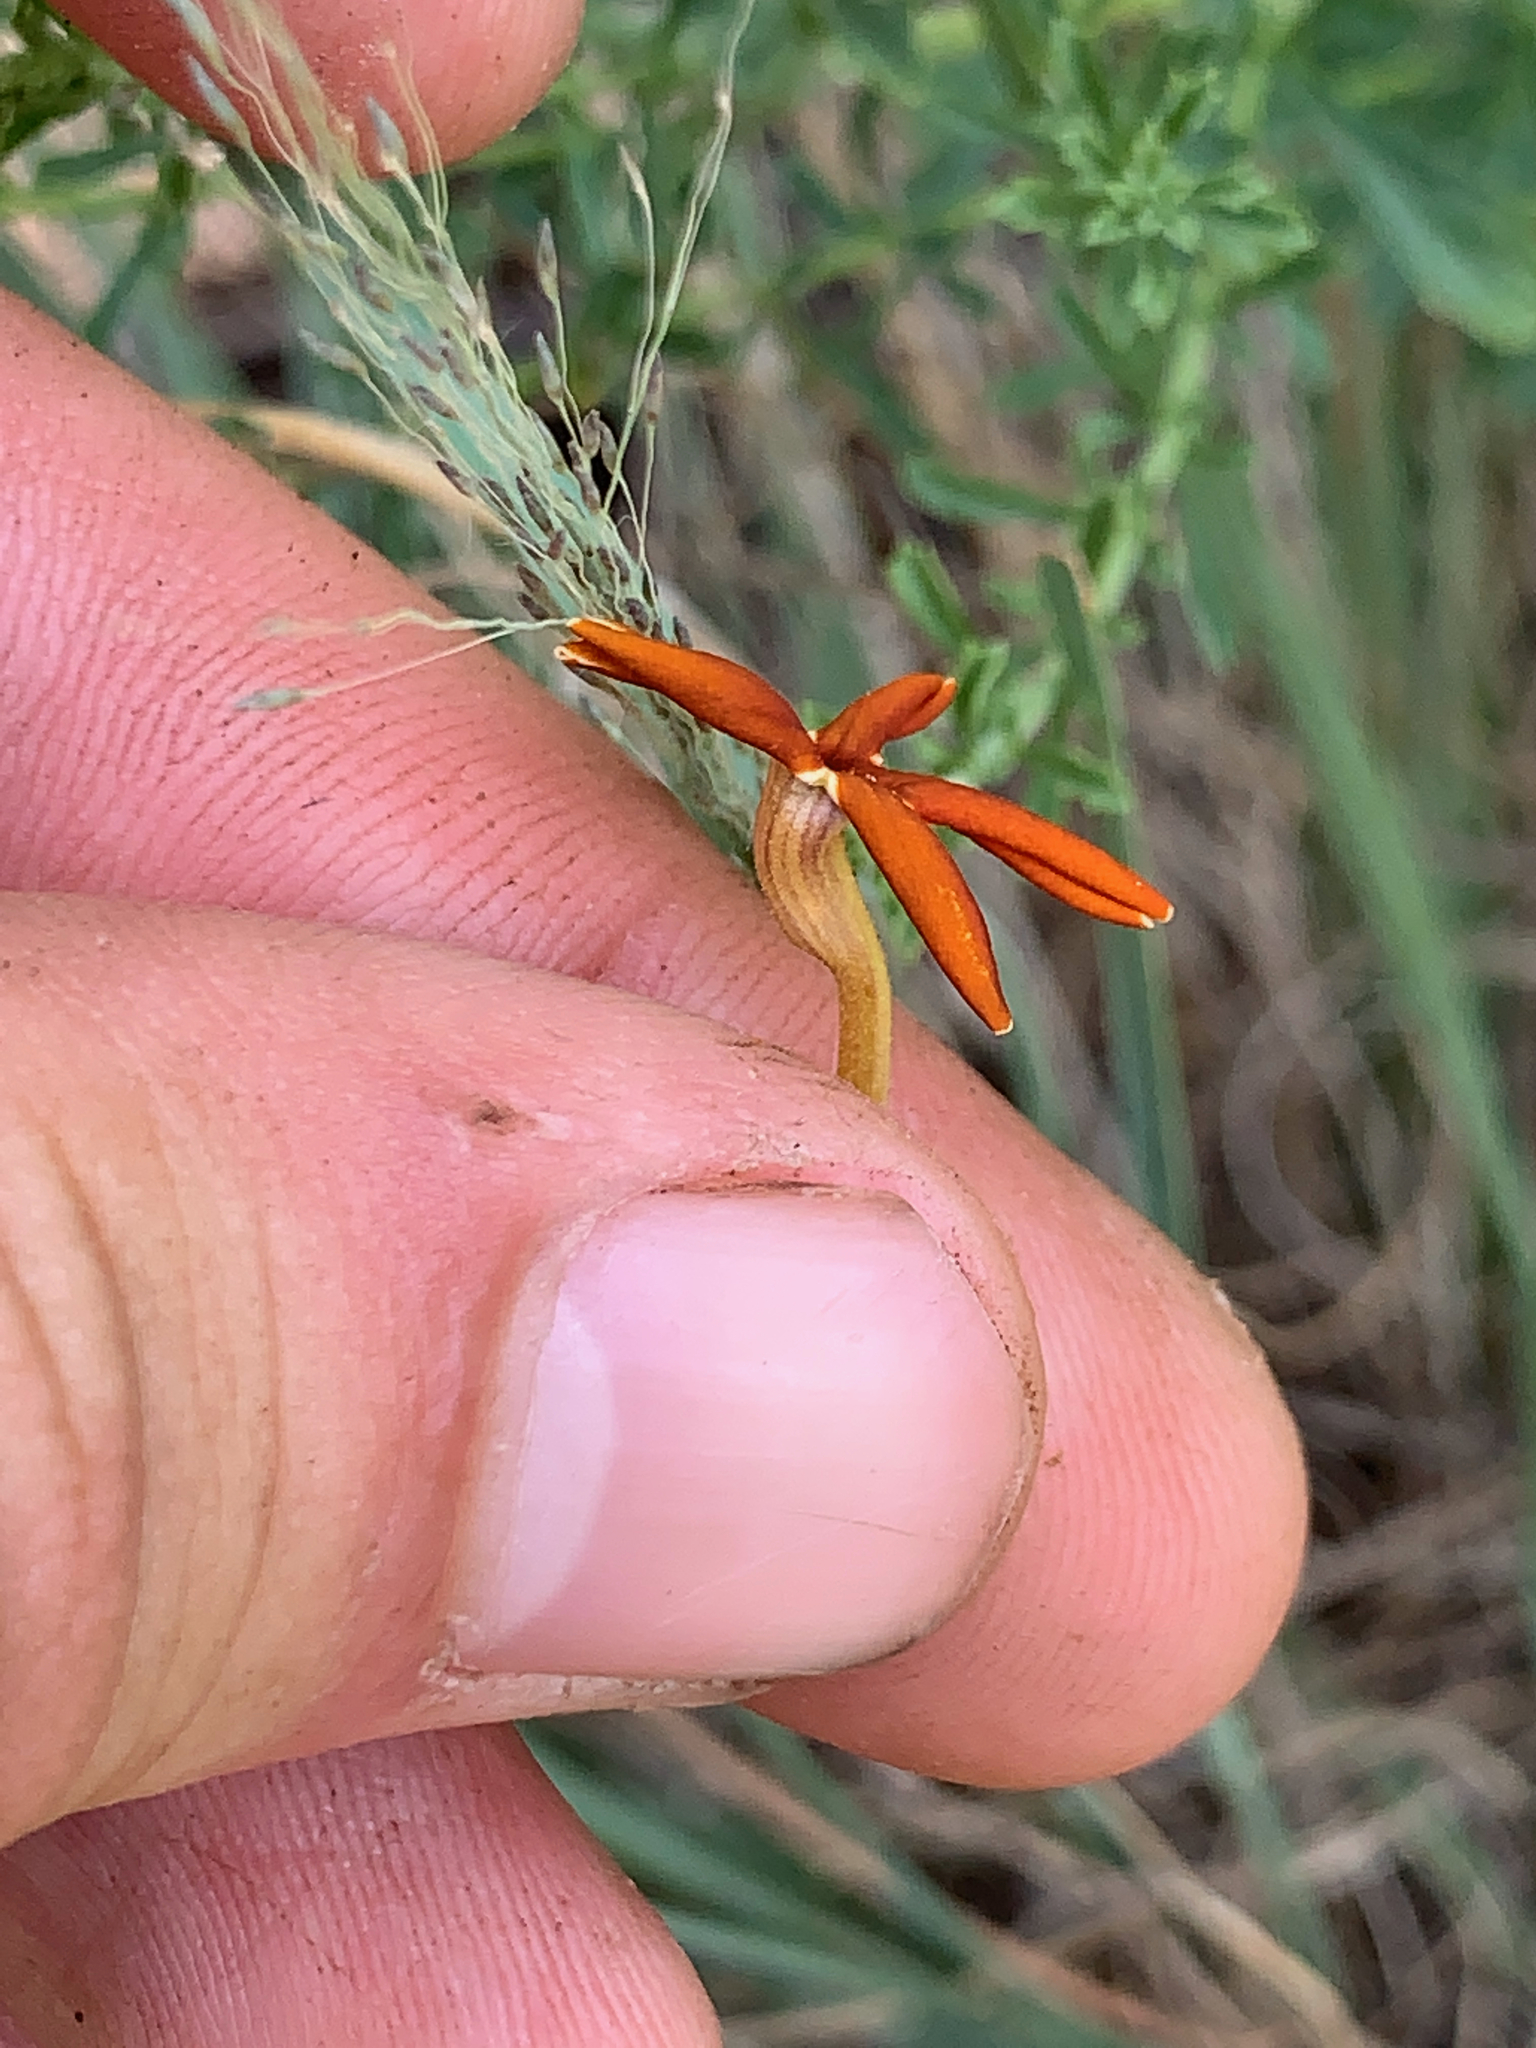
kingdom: Plantae
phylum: Tracheophyta
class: Magnoliopsida
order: Lamiales
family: Scrophulariaceae
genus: Jamesbrittenia
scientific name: Jamesbrittenia burkeana
